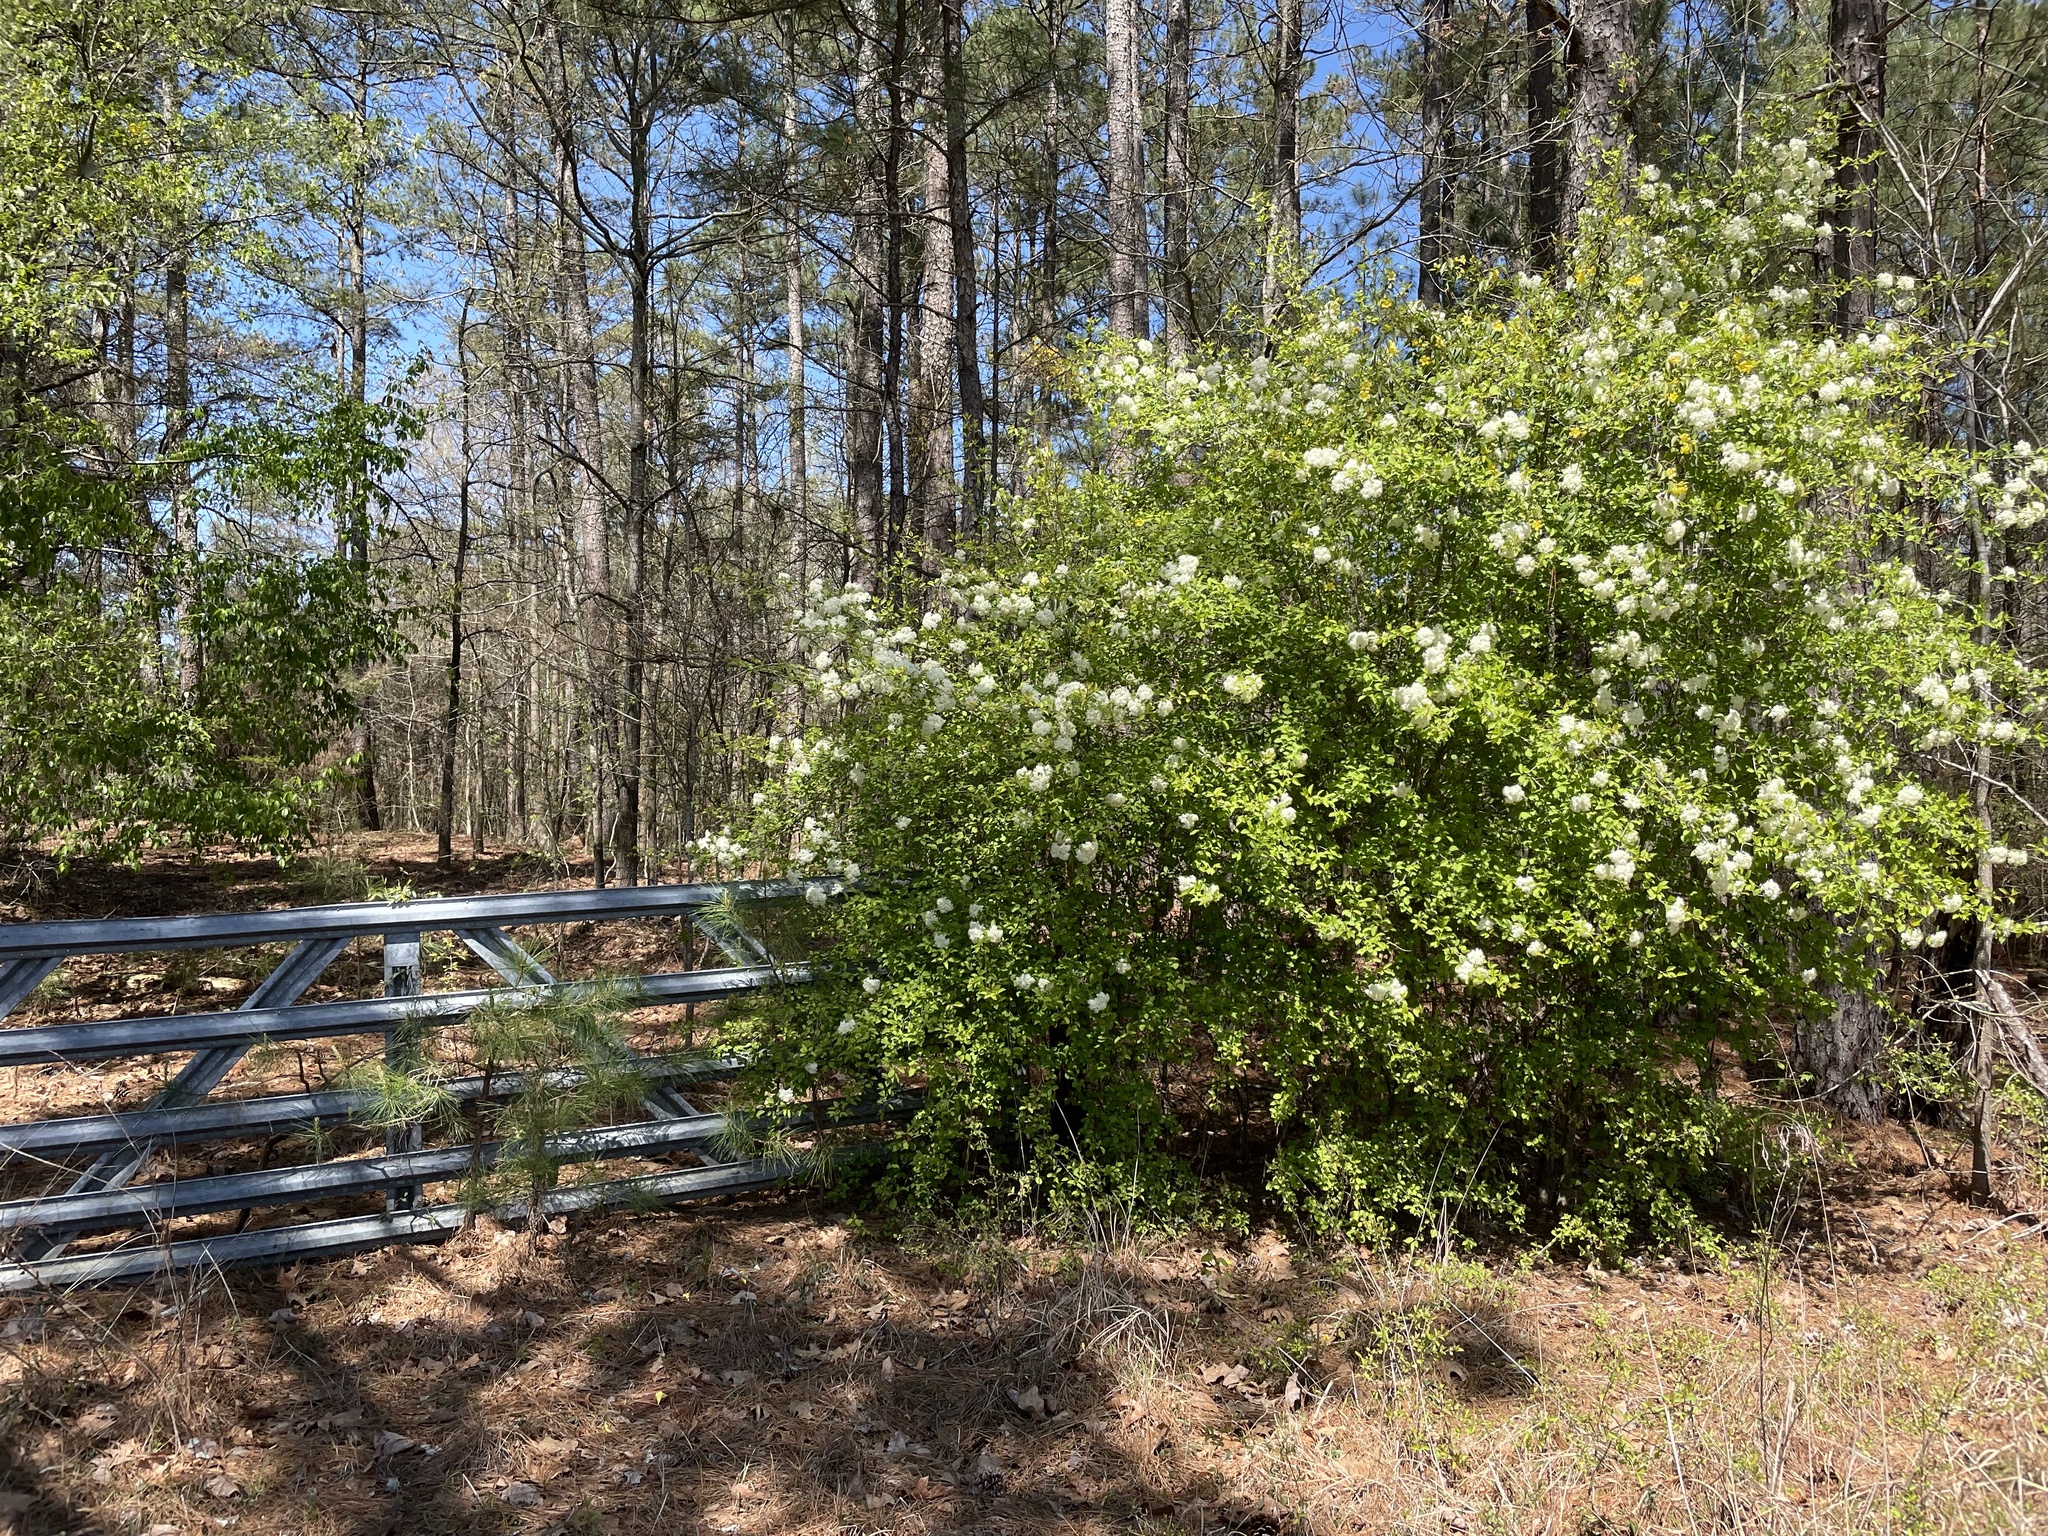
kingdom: Plantae
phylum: Tracheophyta
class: Magnoliopsida
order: Dipsacales
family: Viburnaceae
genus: Viburnum
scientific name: Viburnum prunifolium
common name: Black haw
